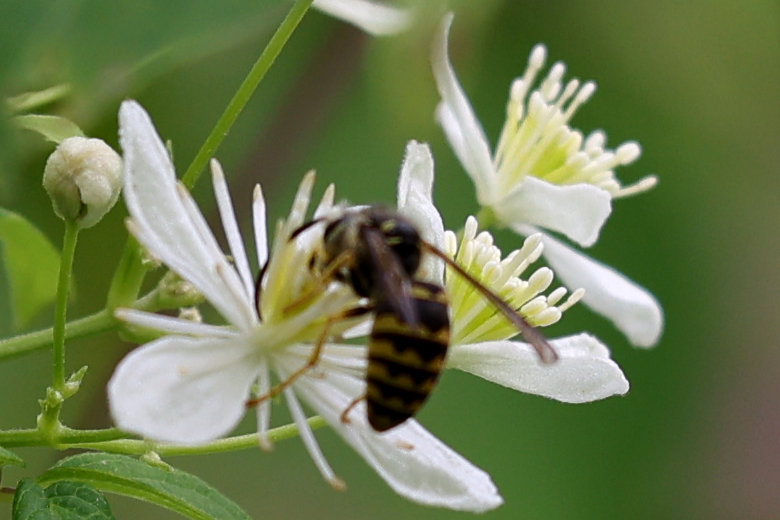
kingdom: Animalia
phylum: Arthropoda
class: Insecta
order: Hymenoptera
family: Vespidae
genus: Dolichovespula
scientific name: Dolichovespula arenaria
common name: Aerial yellowjacket
